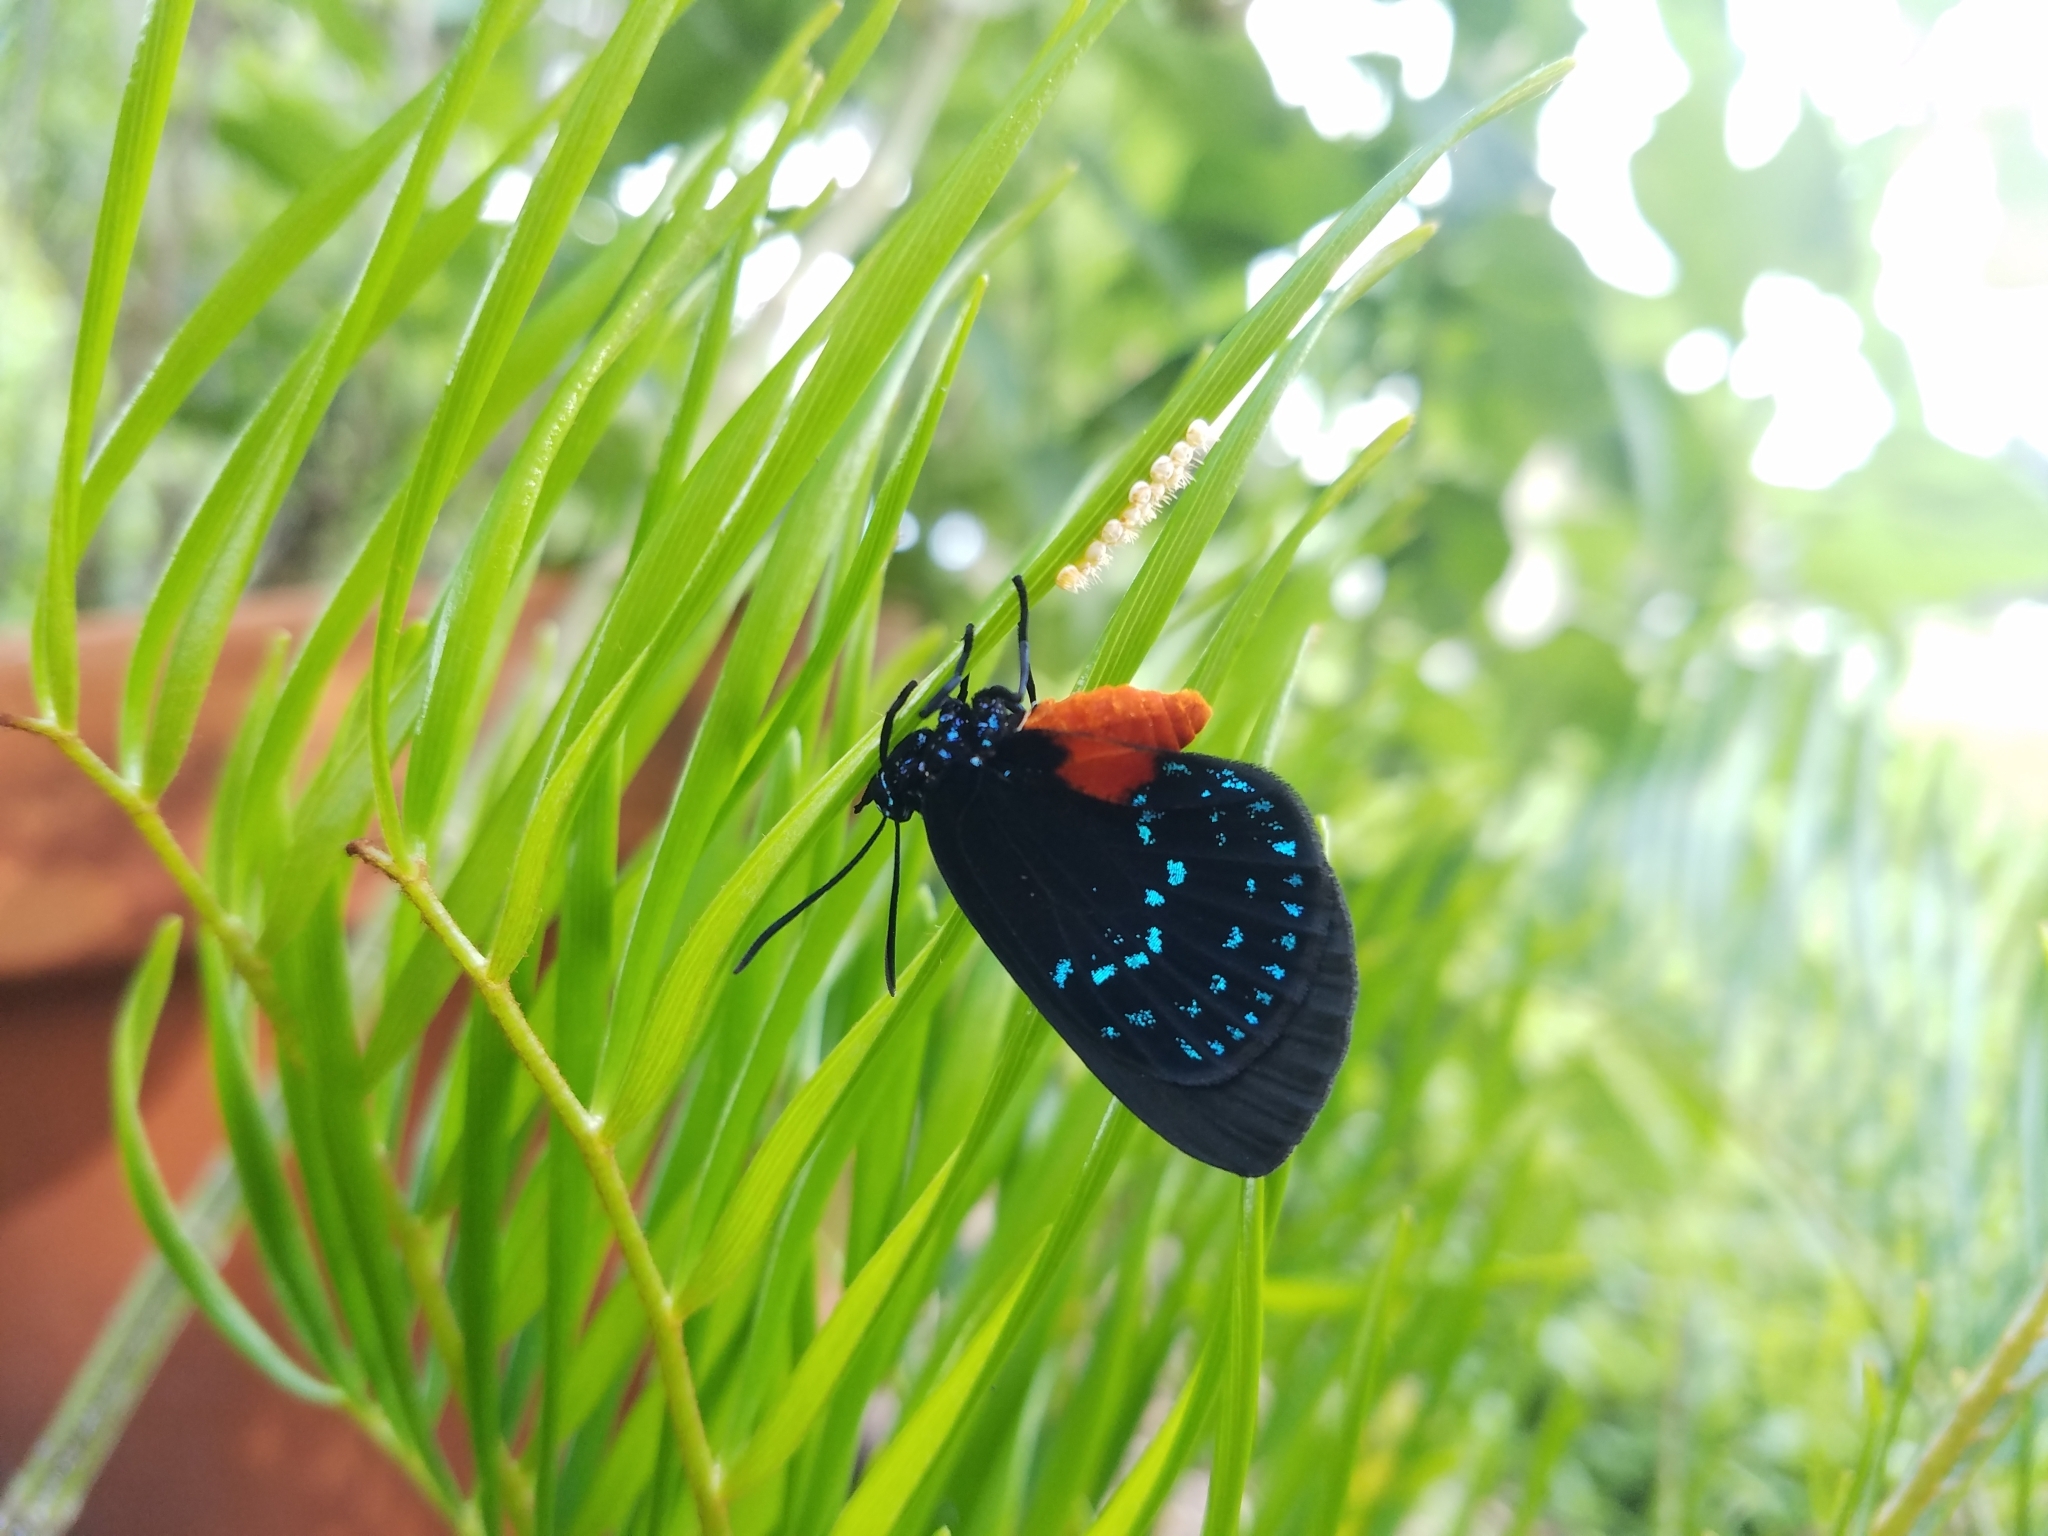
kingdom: Animalia
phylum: Arthropoda
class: Insecta
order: Lepidoptera
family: Lycaenidae
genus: Eumaeus
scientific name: Eumaeus atala
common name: Atala
